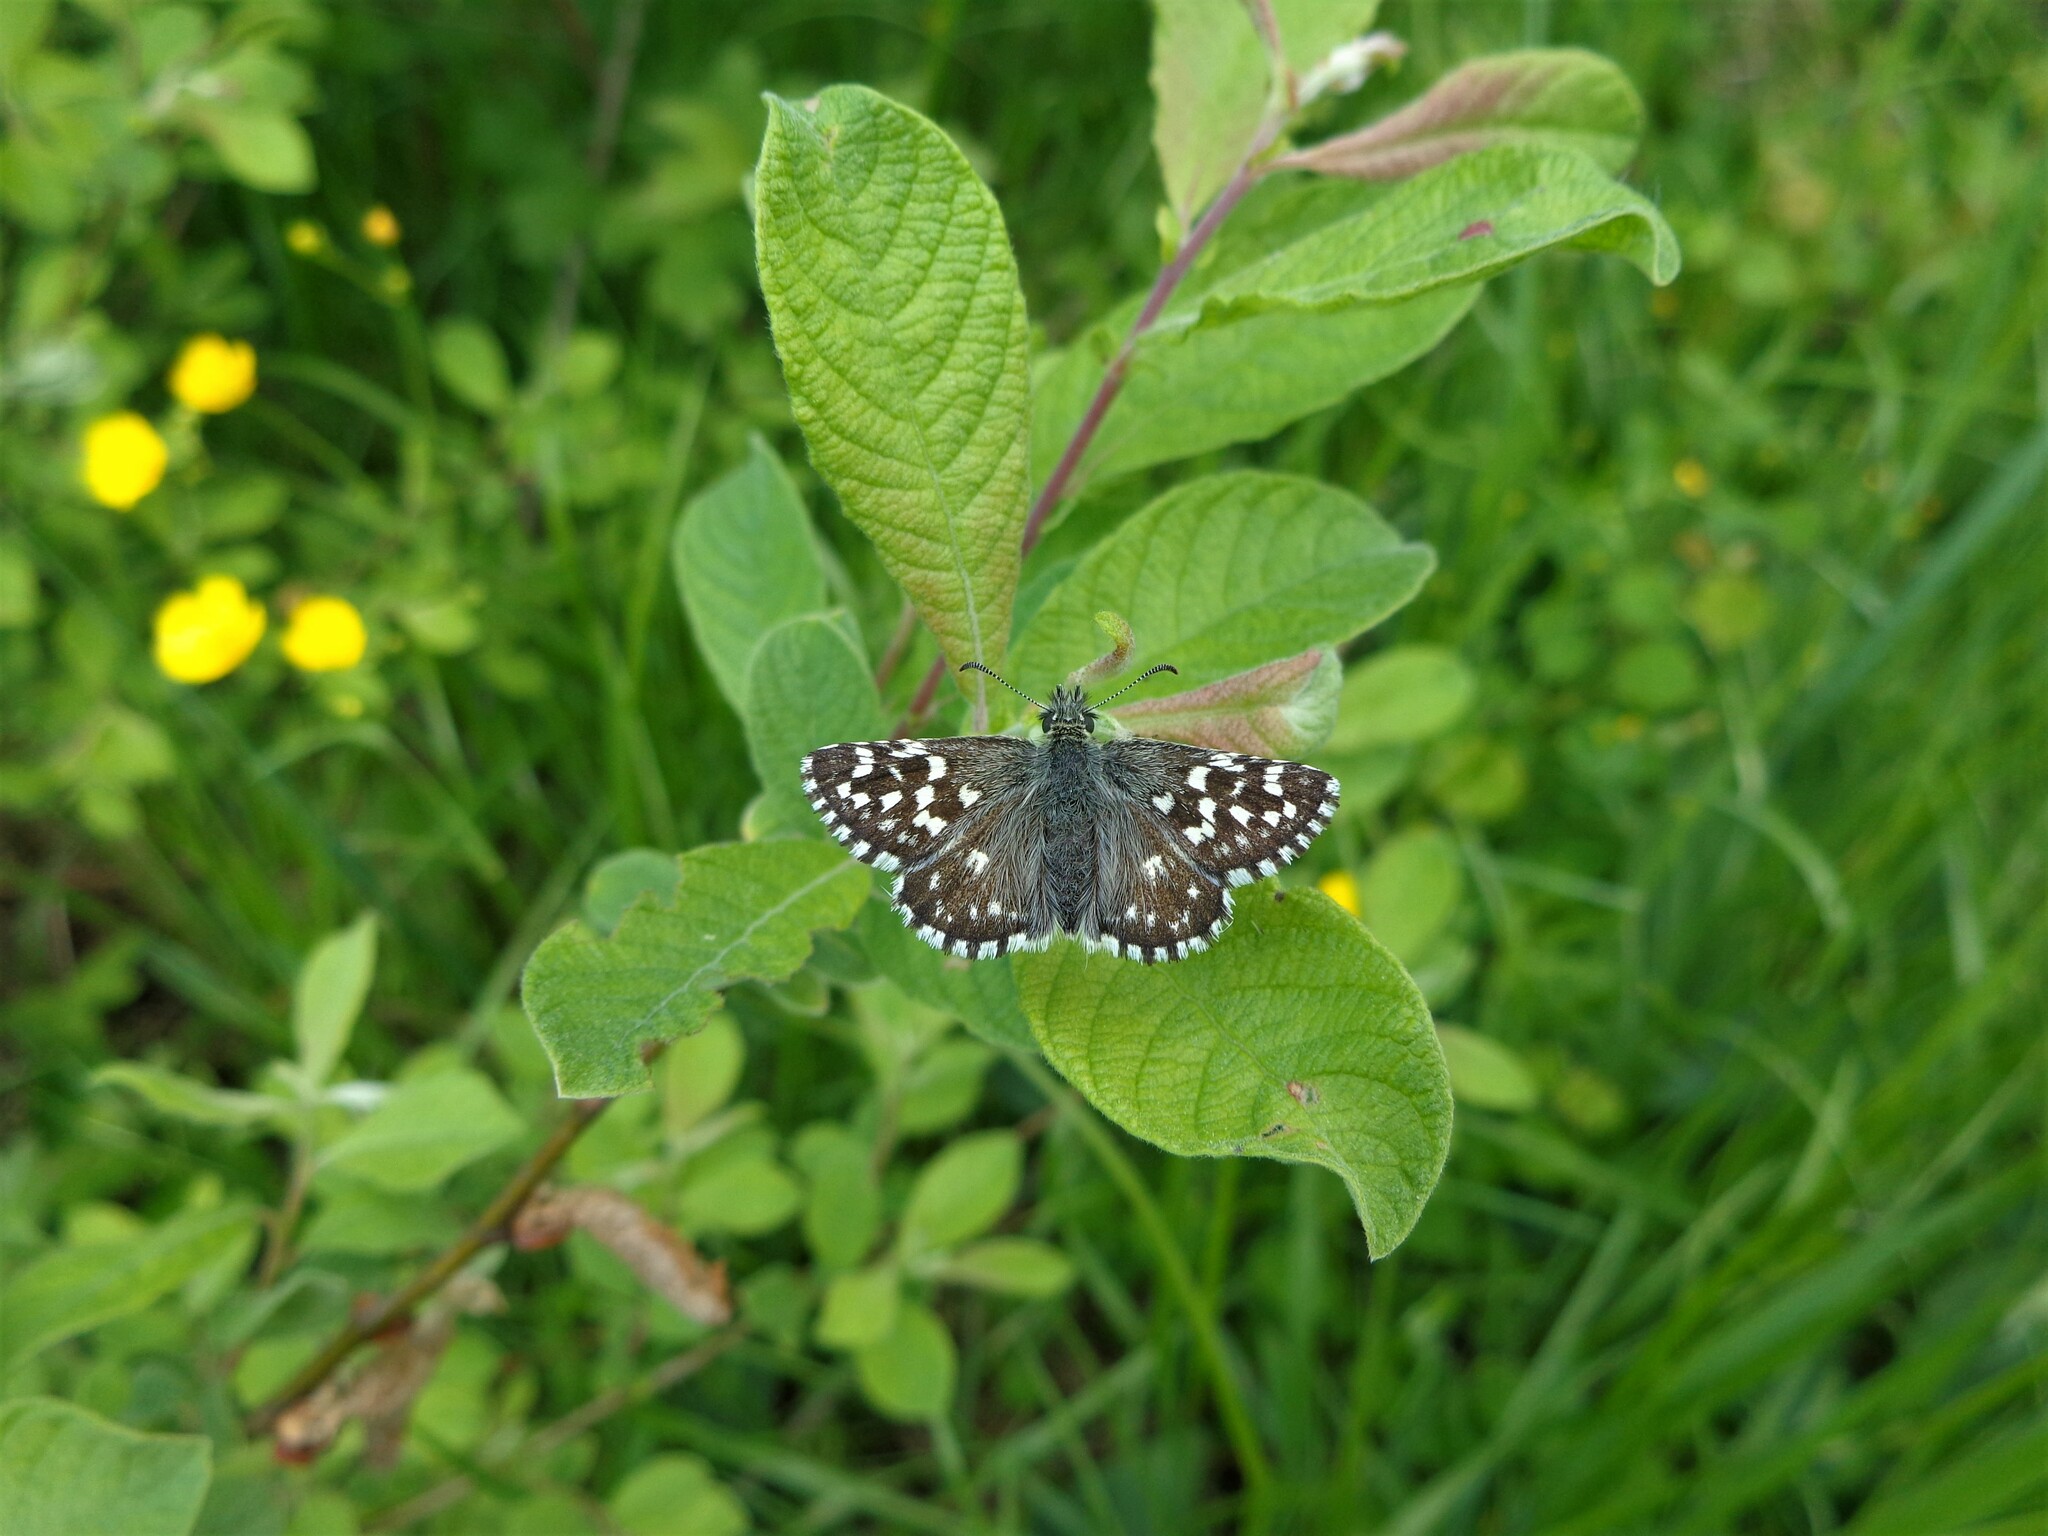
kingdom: Animalia
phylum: Arthropoda
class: Insecta
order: Lepidoptera
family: Hesperiidae
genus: Pyrgus
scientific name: Pyrgus malvae
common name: Grizzled skipper
